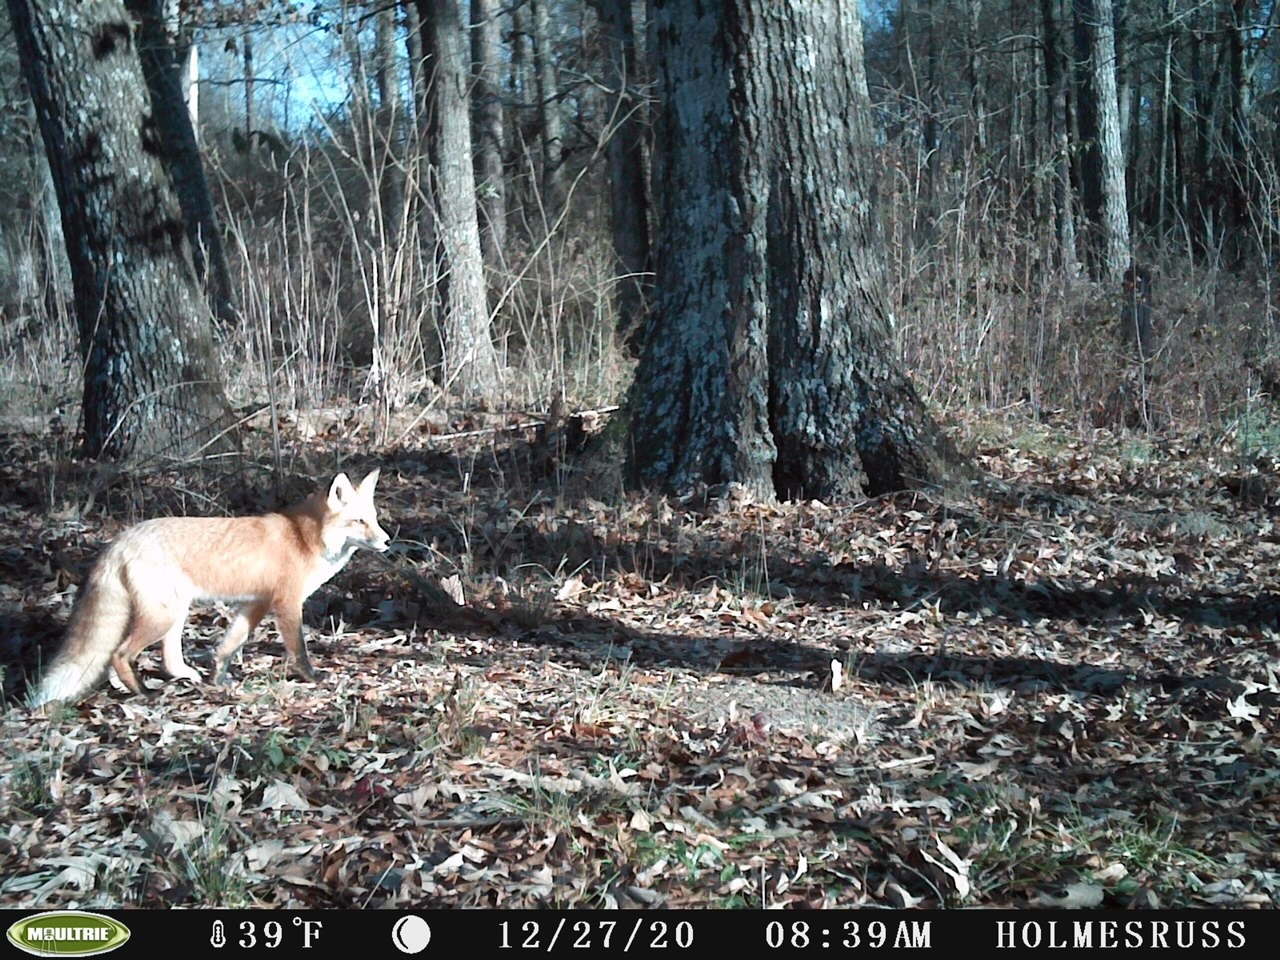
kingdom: Animalia
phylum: Chordata
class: Mammalia
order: Carnivora
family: Canidae
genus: Vulpes
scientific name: Vulpes vulpes
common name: Red fox
